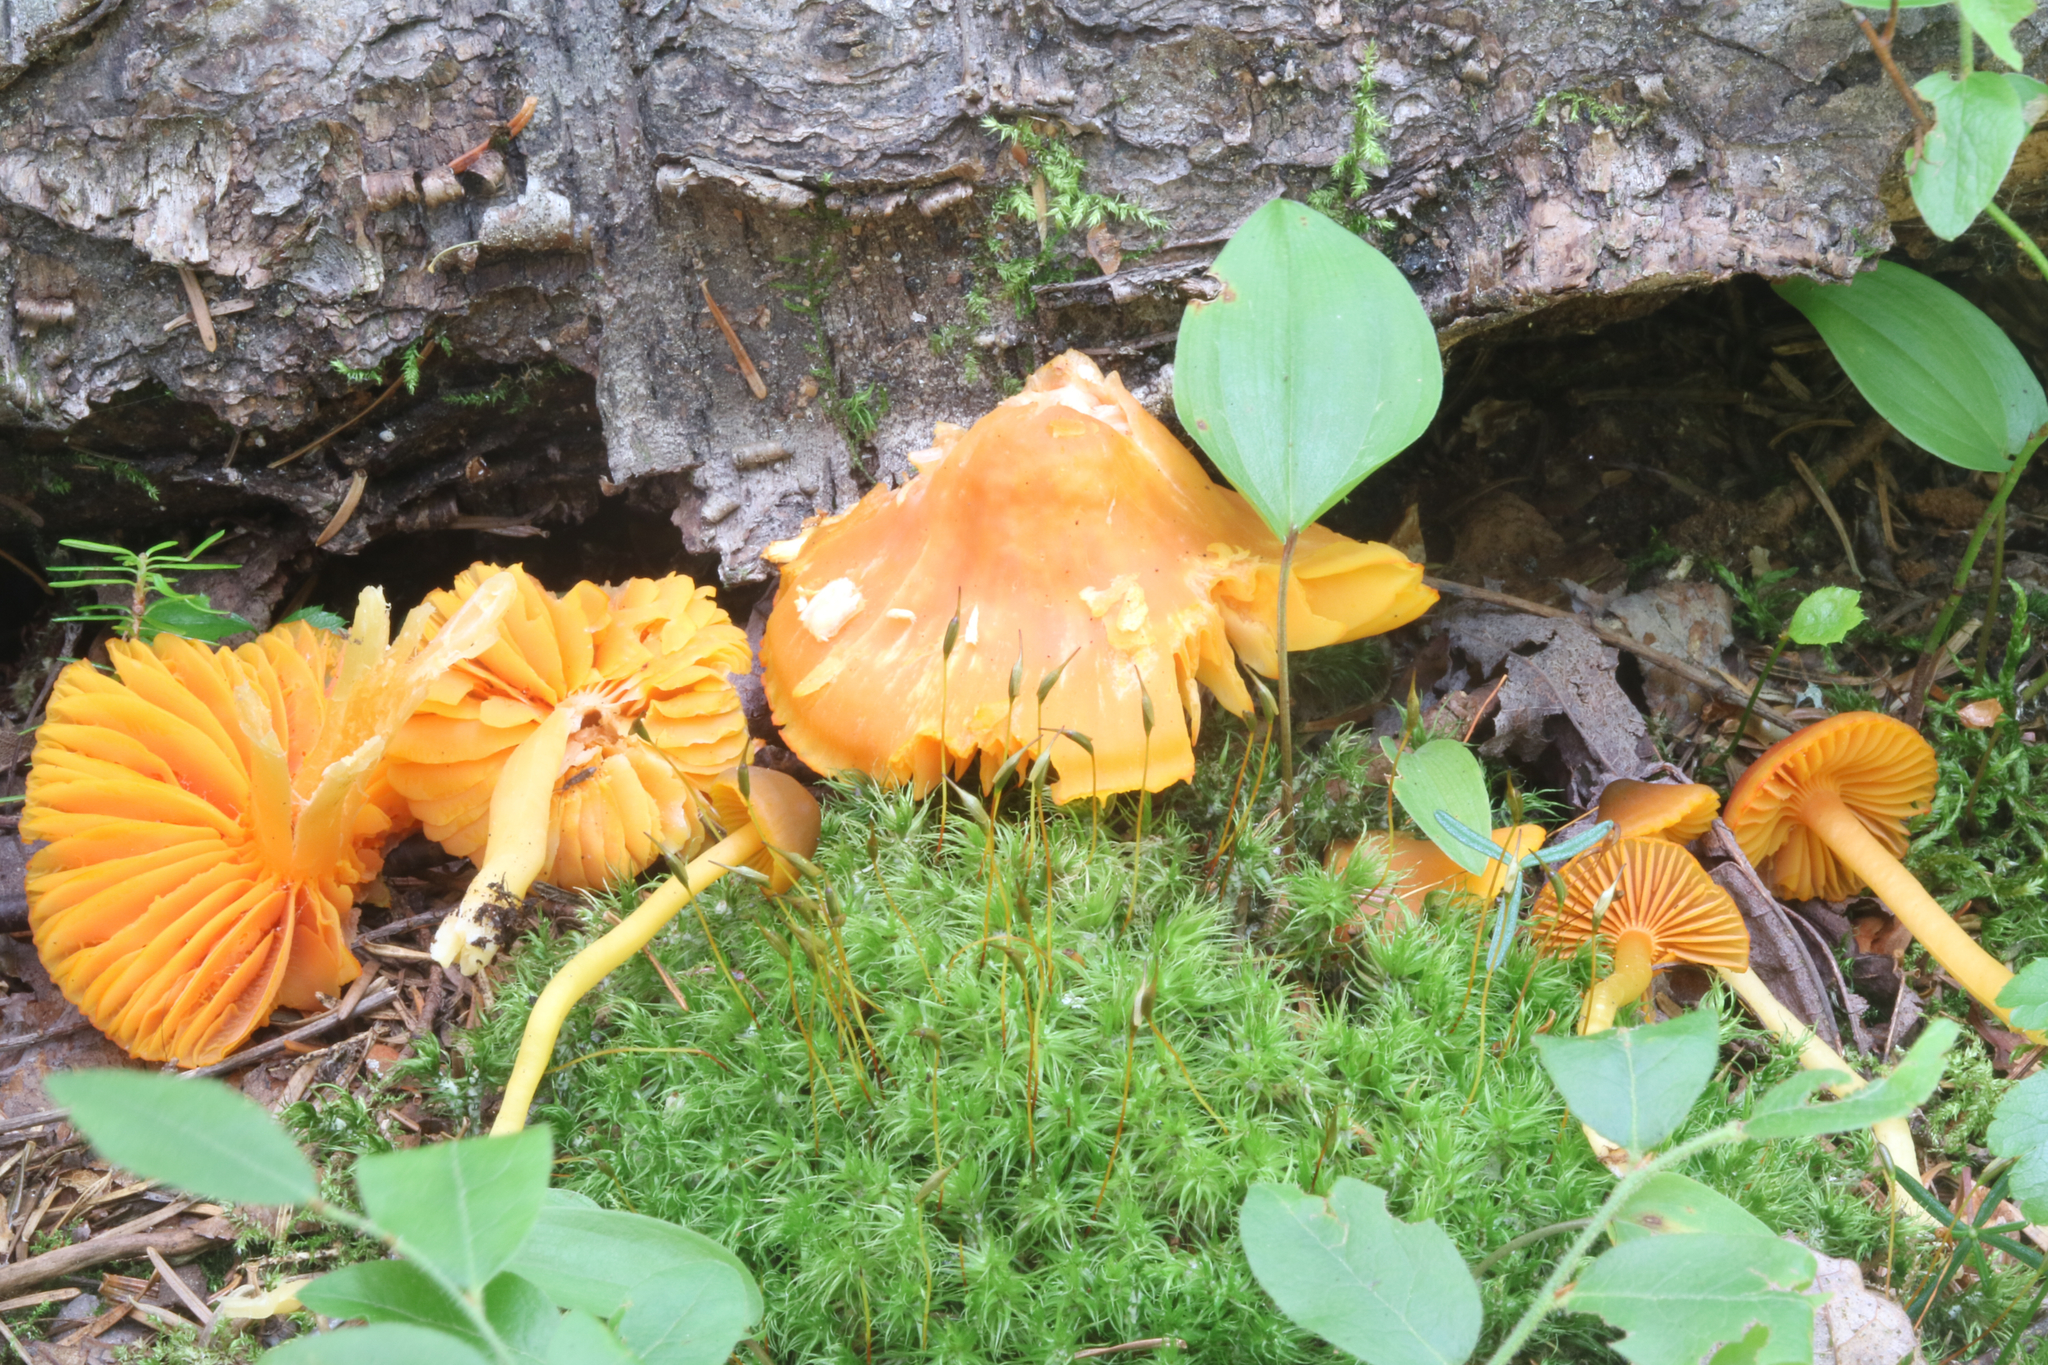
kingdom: Fungi
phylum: Basidiomycota
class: Agaricomycetes
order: Agaricales
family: Hygrophoraceae
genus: Humidicutis
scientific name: Humidicutis marginata
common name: Orange gilled waxcap
